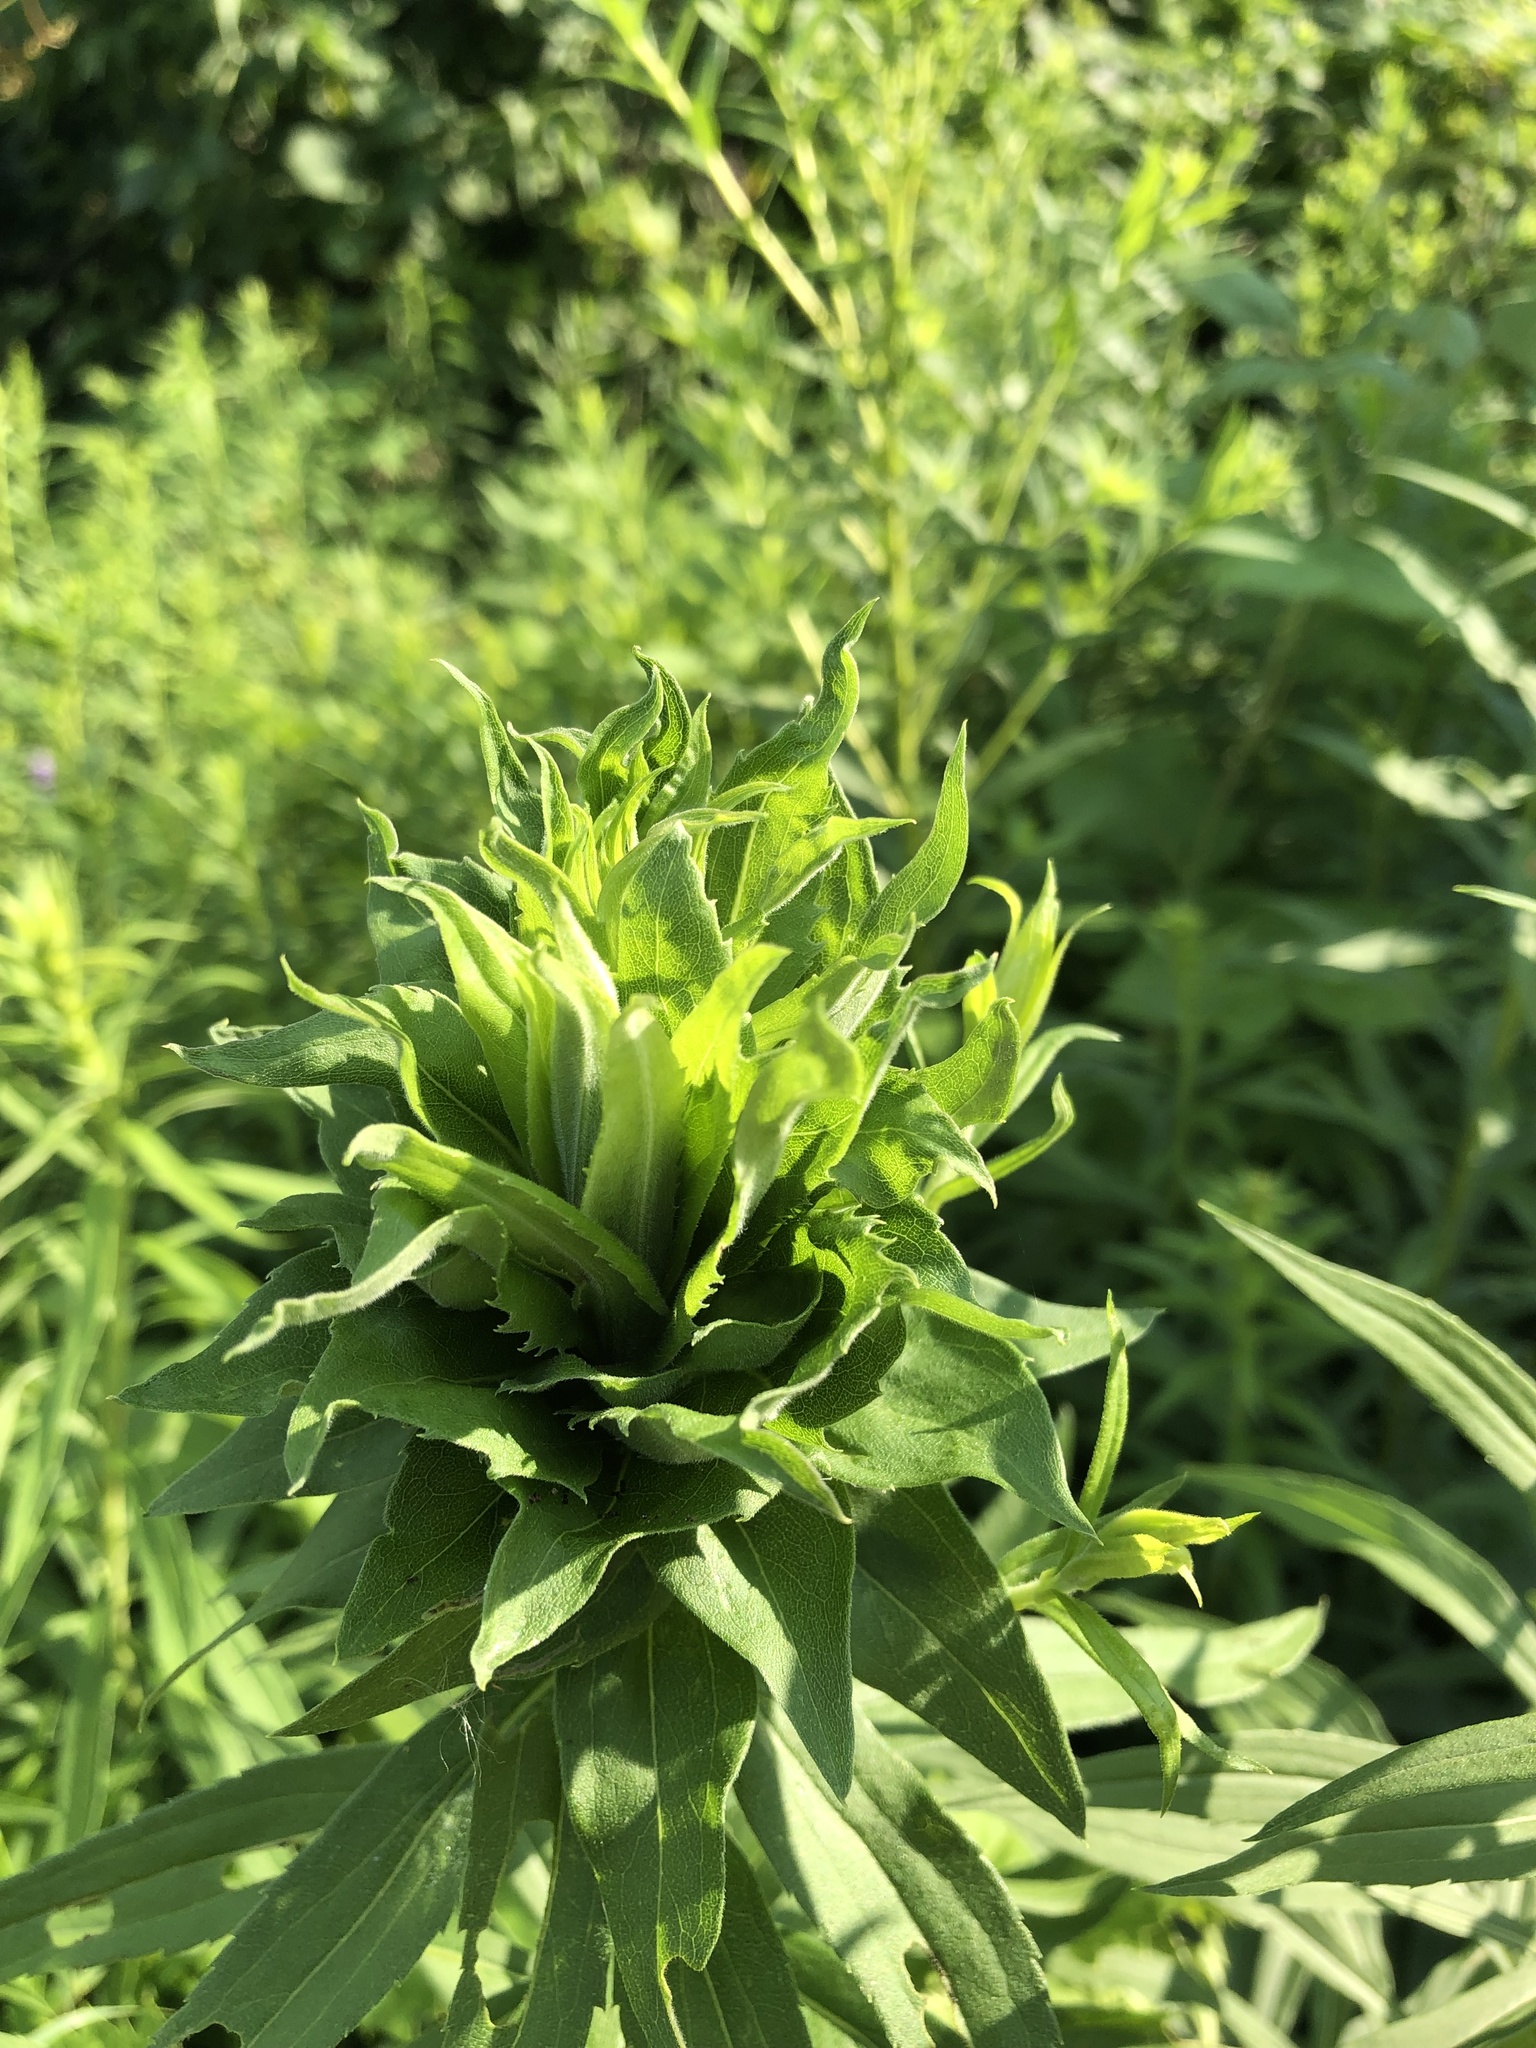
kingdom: Animalia
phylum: Arthropoda
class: Insecta
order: Diptera
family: Cecidomyiidae
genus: Rhopalomyia
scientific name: Rhopalomyia solidaginis
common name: Goldenrod bunch gall midge
